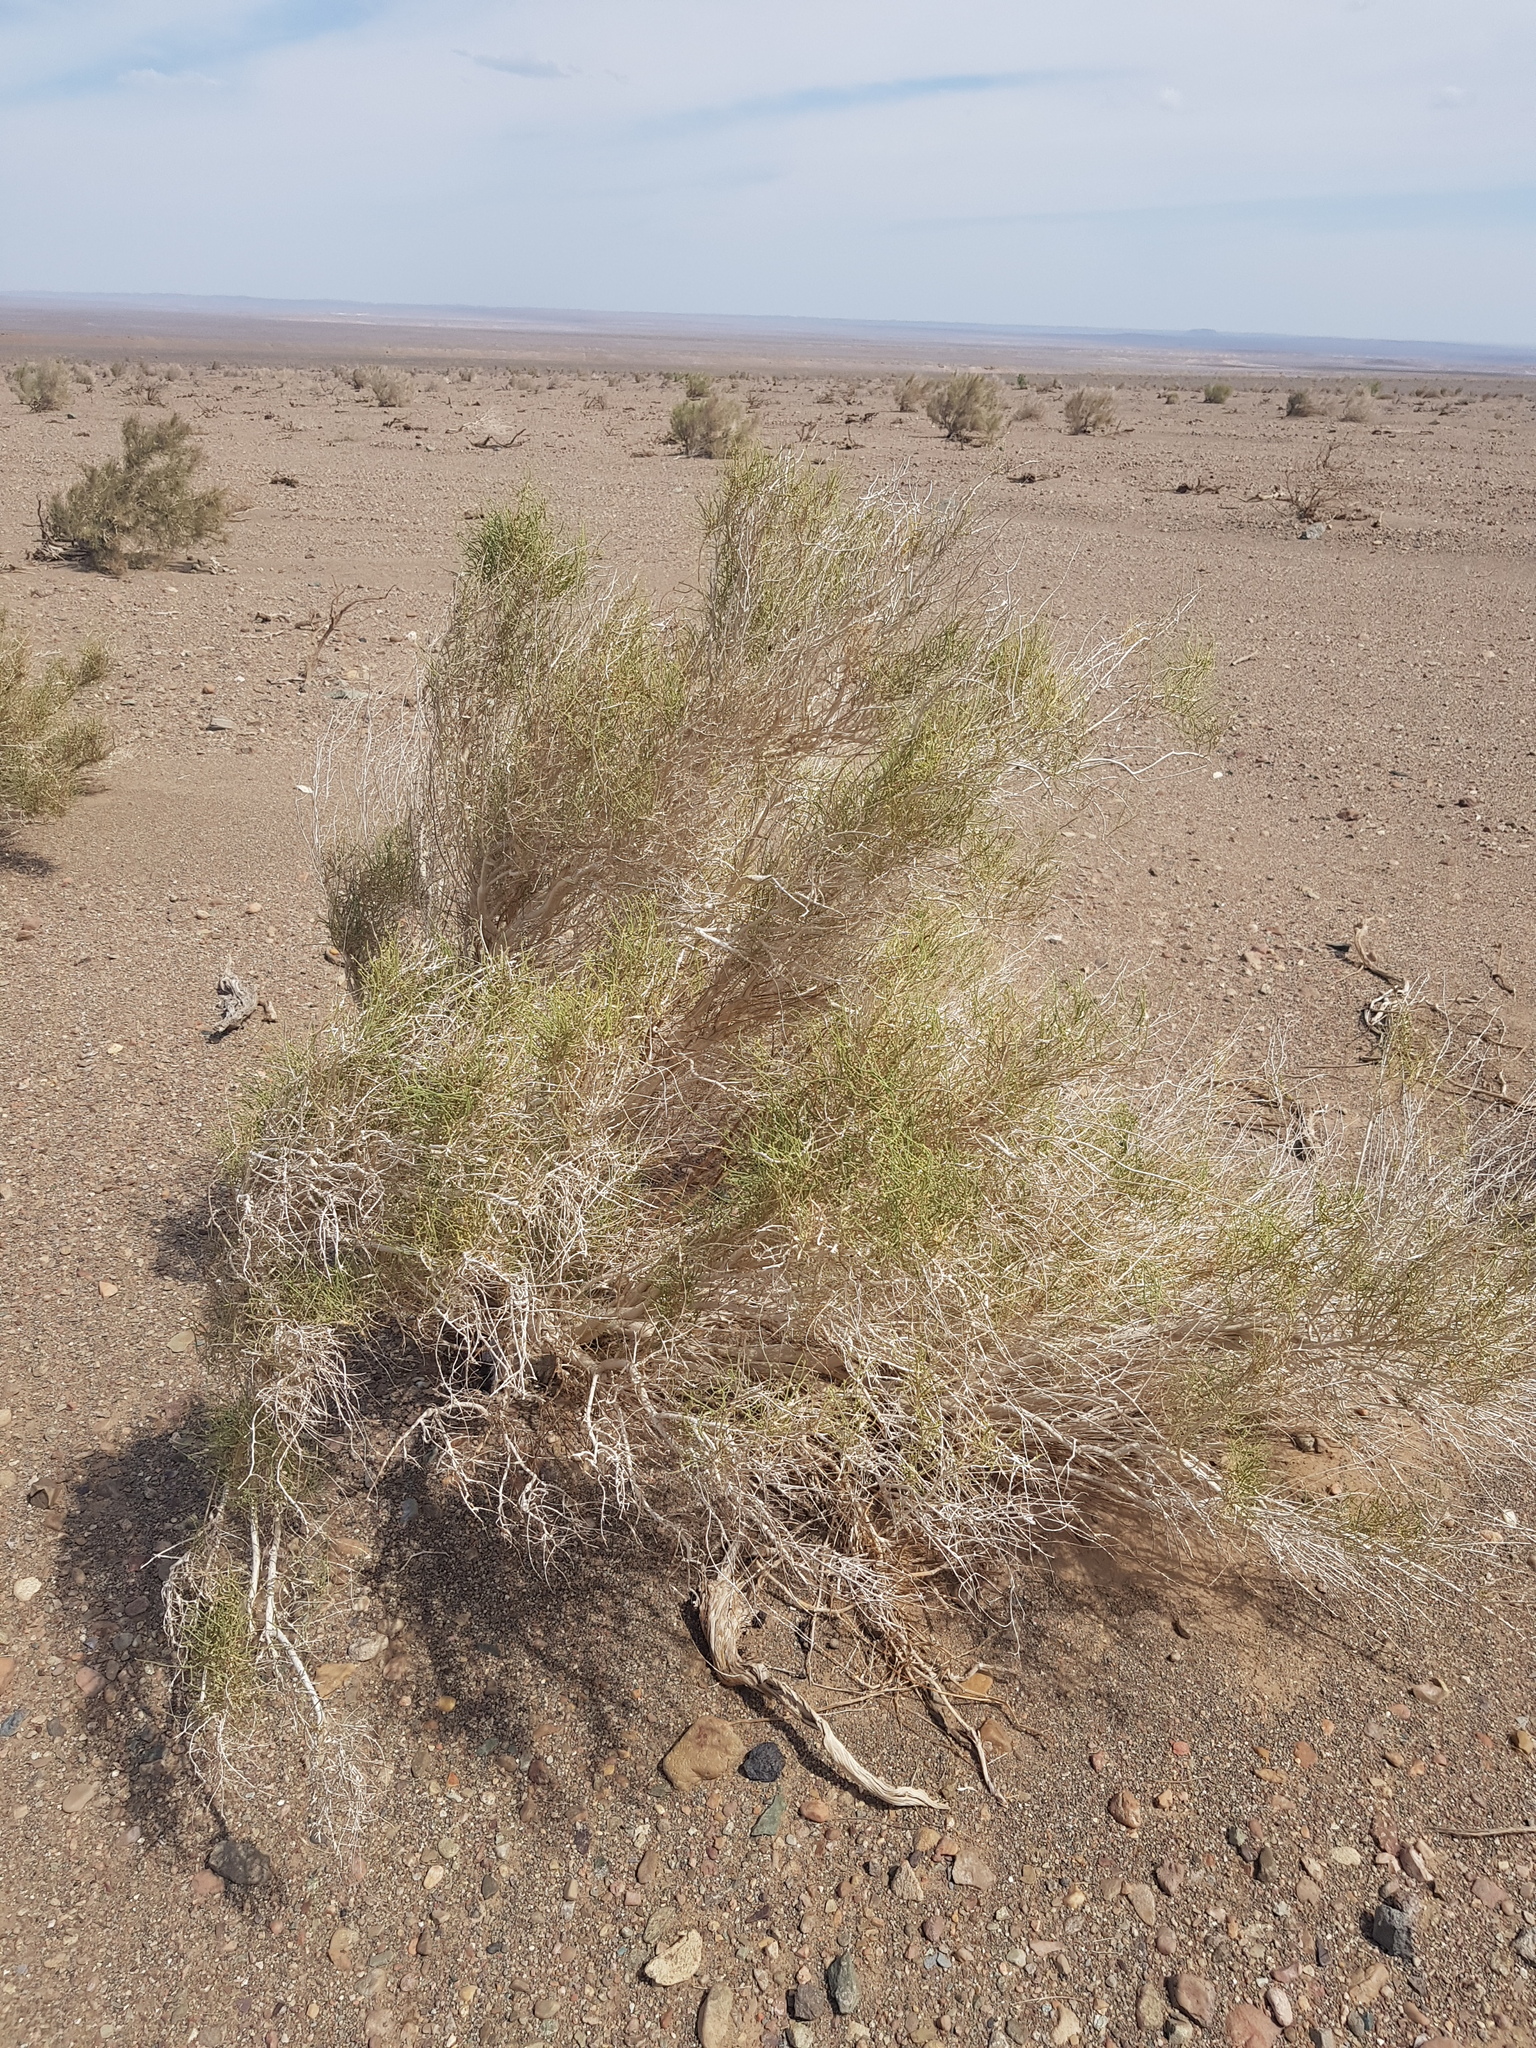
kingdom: Plantae
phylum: Tracheophyta
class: Magnoliopsida
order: Caryophyllales
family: Amaranthaceae
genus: Haloxylon
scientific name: Haloxylon ammodendron
